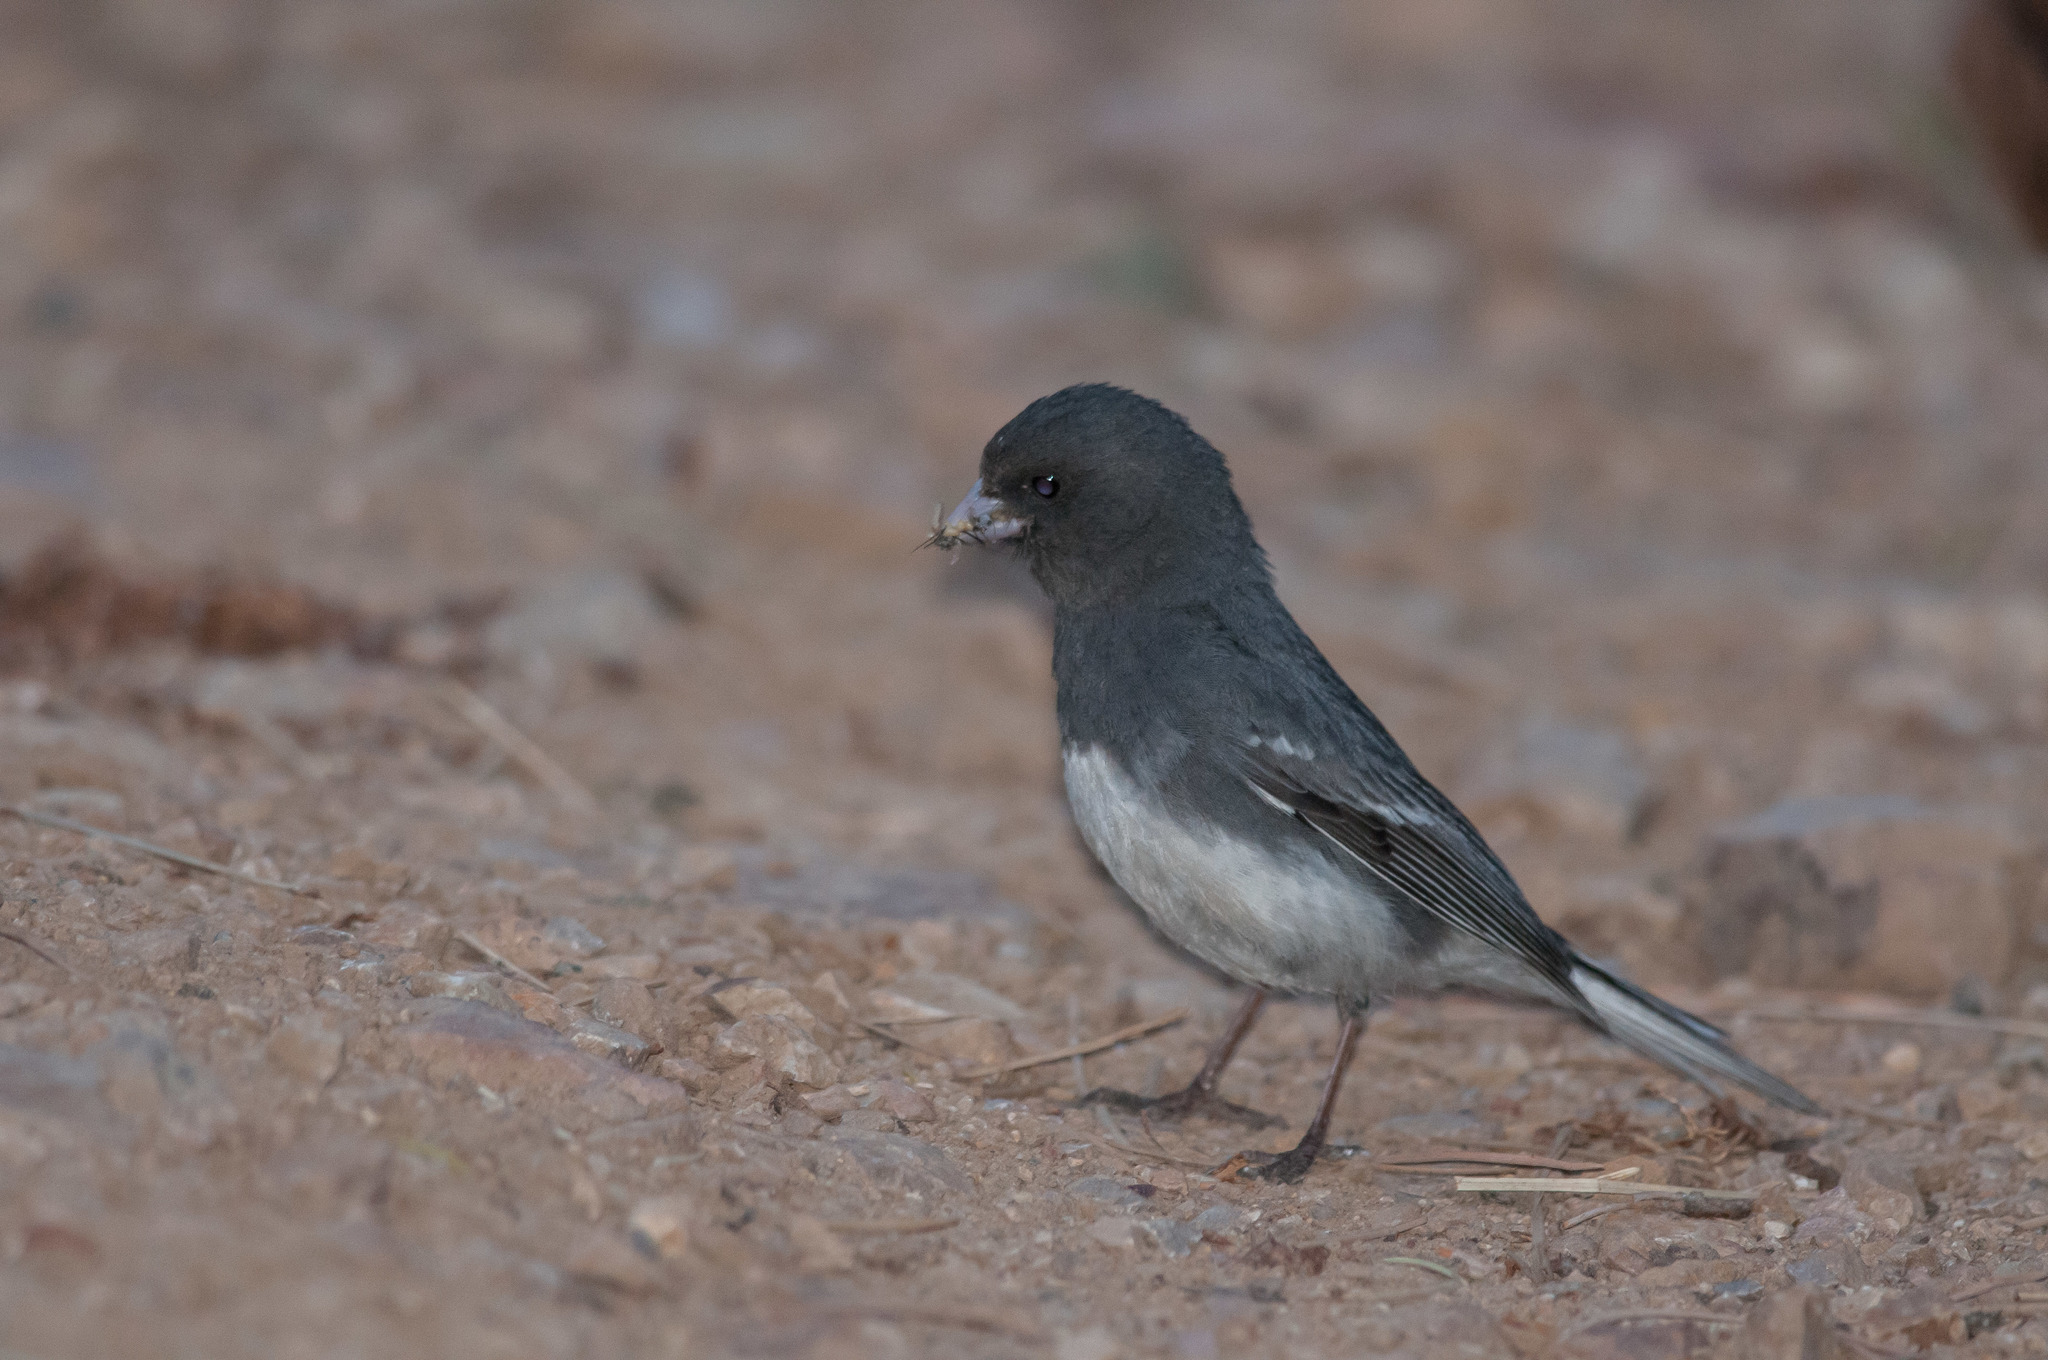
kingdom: Animalia
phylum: Chordata
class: Aves
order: Passeriformes
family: Passerellidae
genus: Junco
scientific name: Junco hyemalis
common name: Dark-eyed junco
